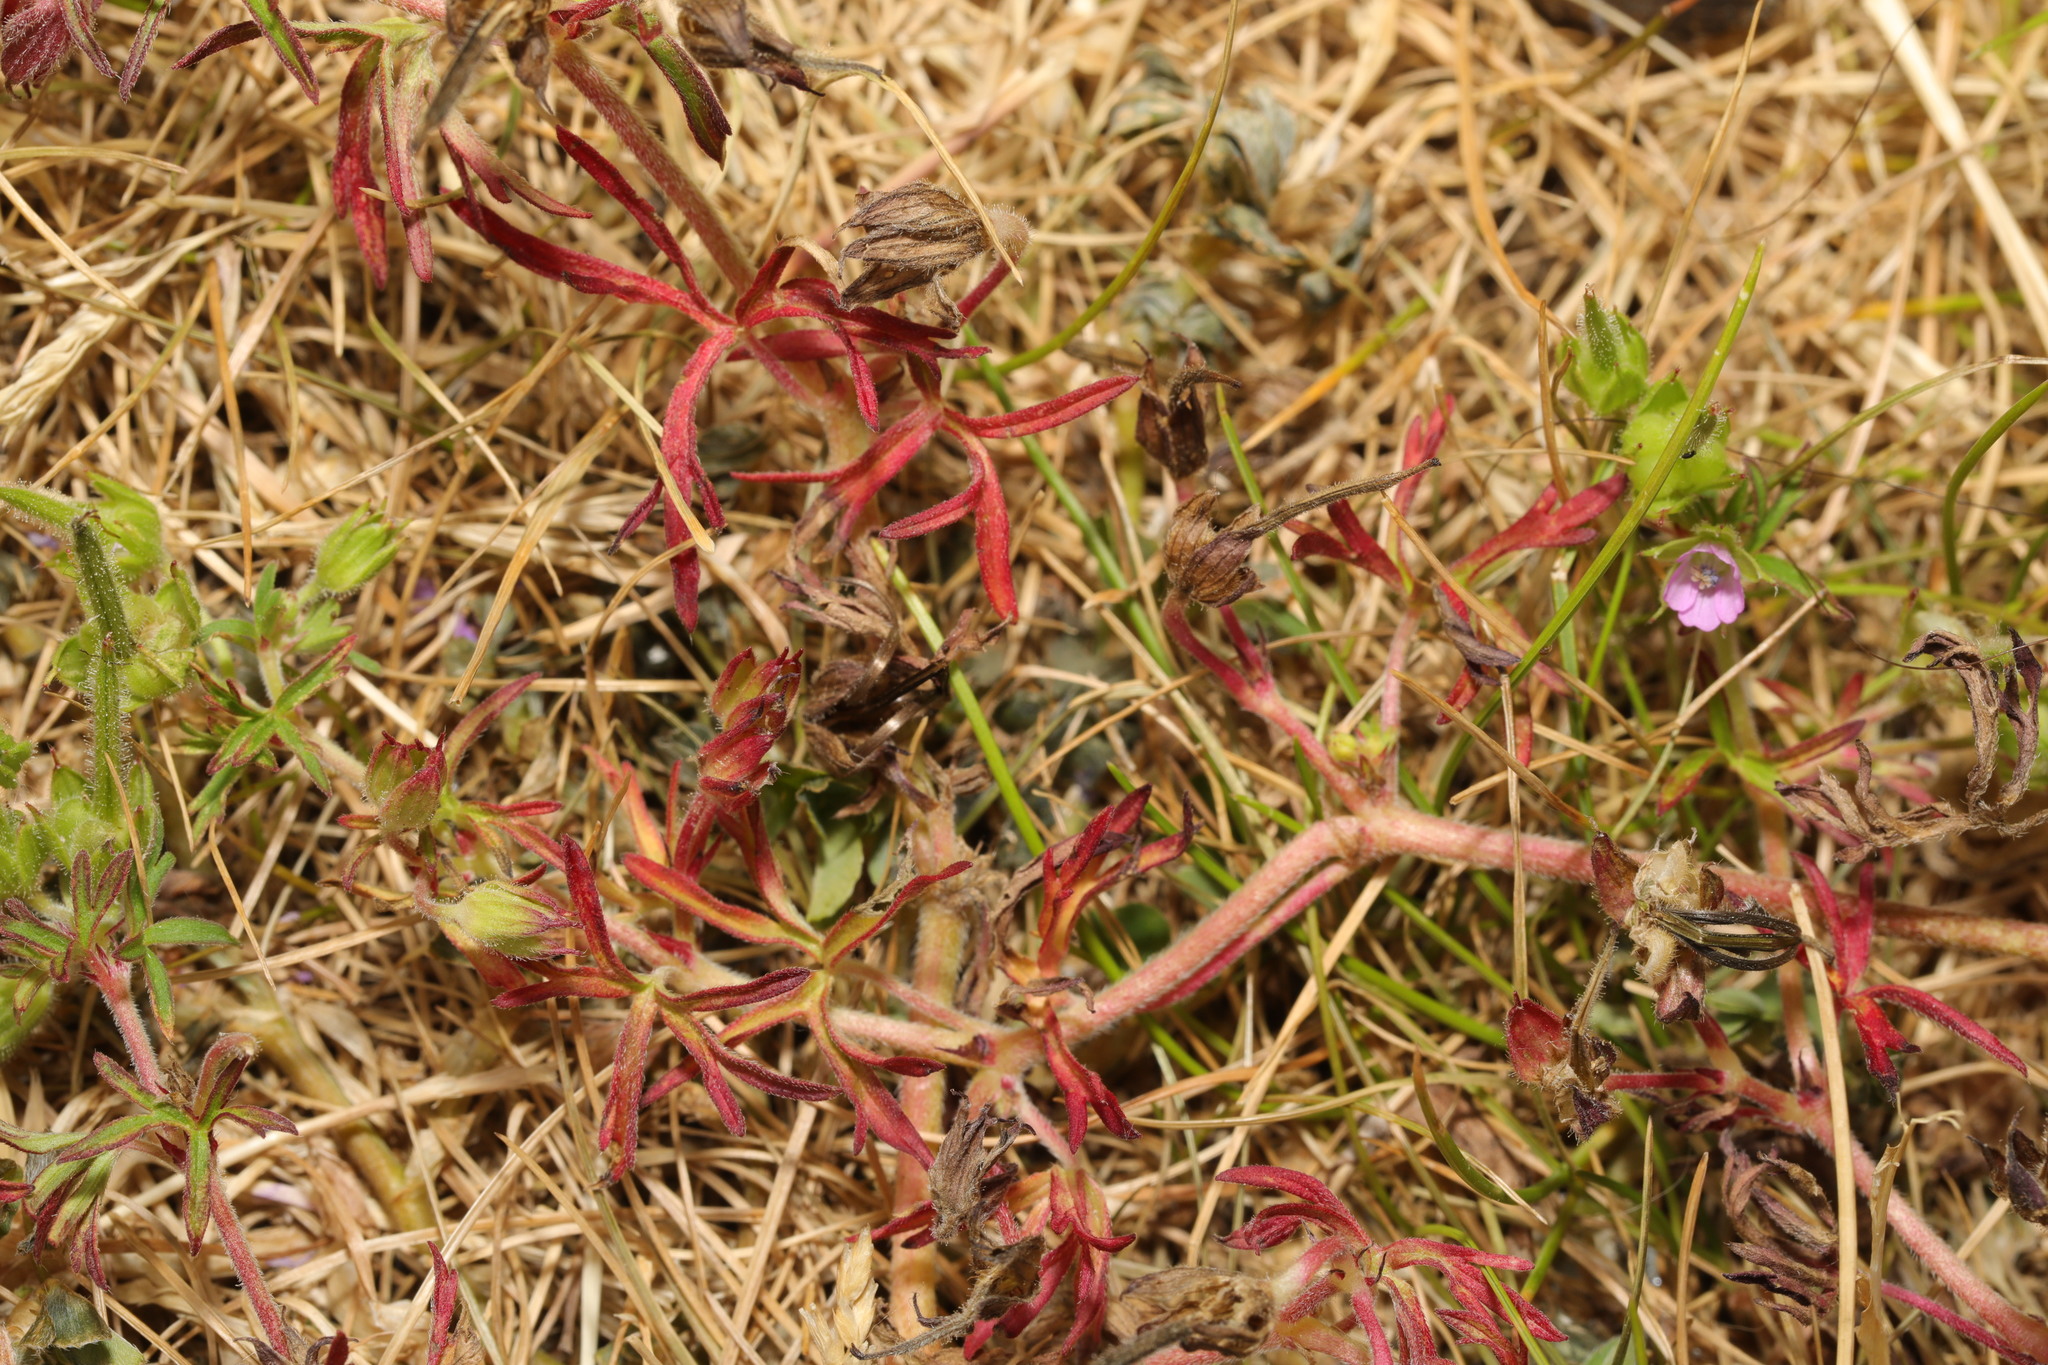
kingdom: Plantae
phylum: Tracheophyta
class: Magnoliopsida
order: Geraniales
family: Geraniaceae
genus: Geranium
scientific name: Geranium dissectum
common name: Cut-leaved crane's-bill
